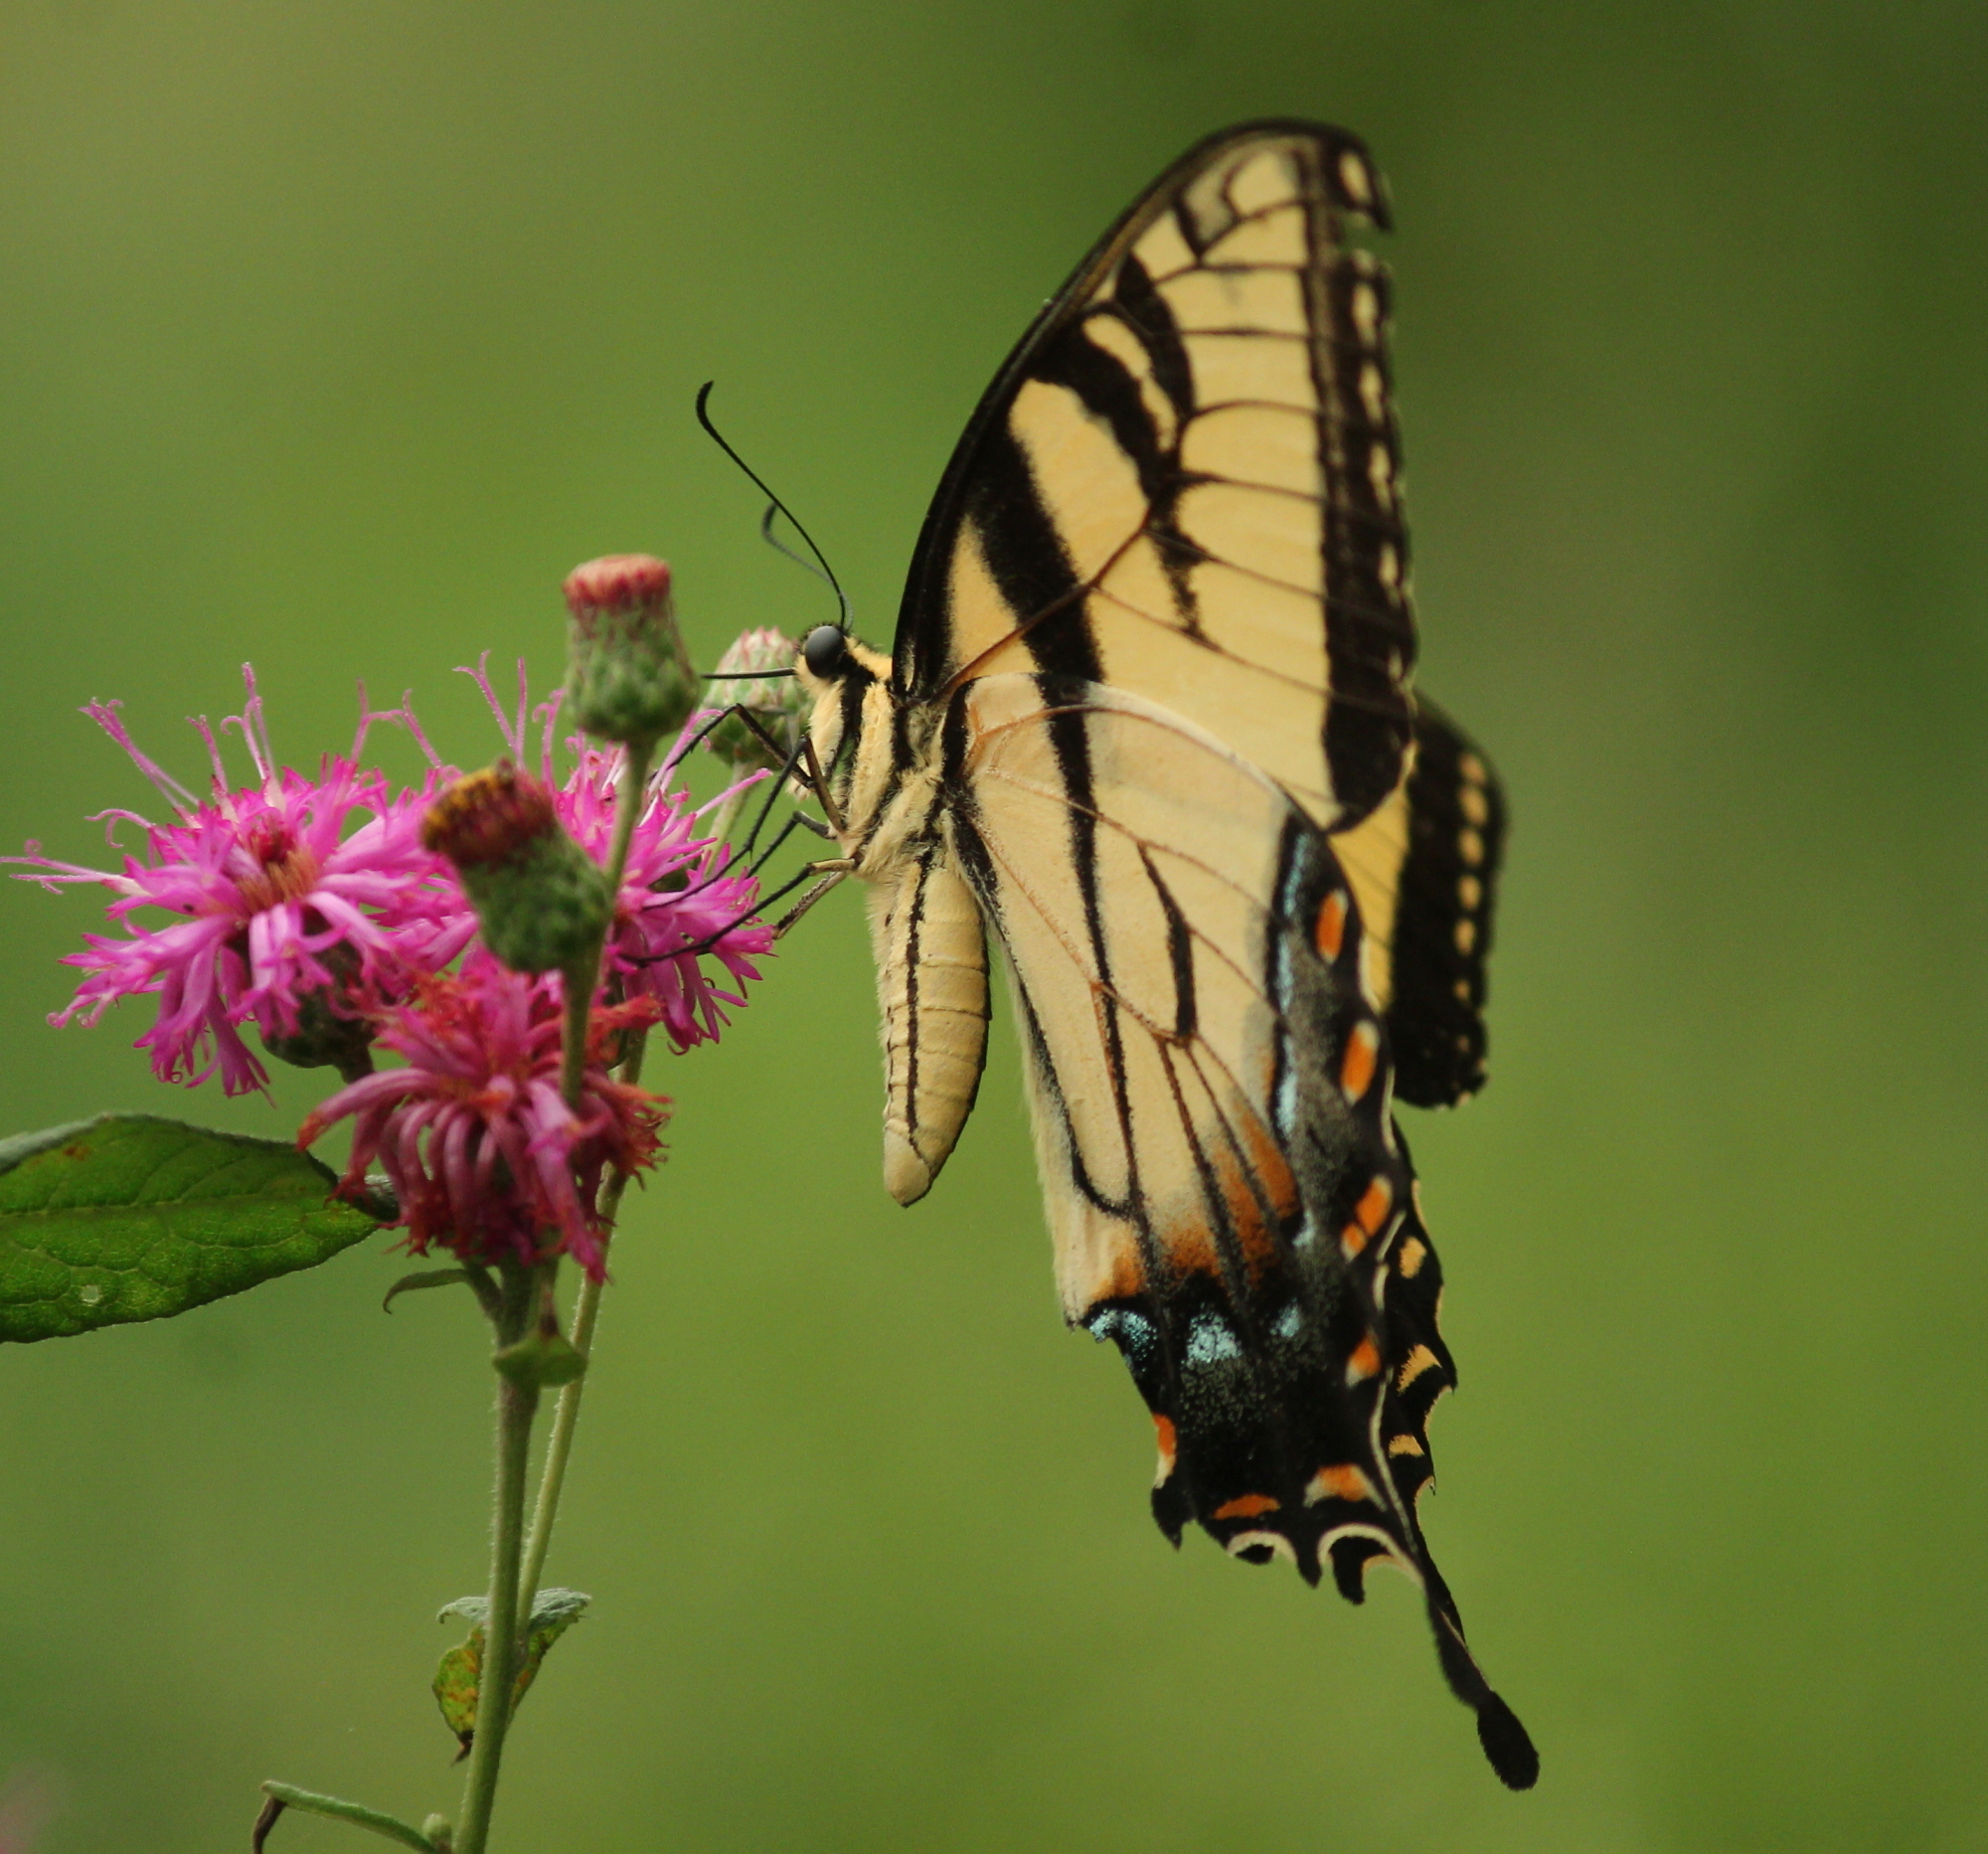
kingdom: Animalia
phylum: Arthropoda
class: Insecta
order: Lepidoptera
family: Papilionidae
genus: Papilio
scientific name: Papilio glaucus
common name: Tiger swallowtail
